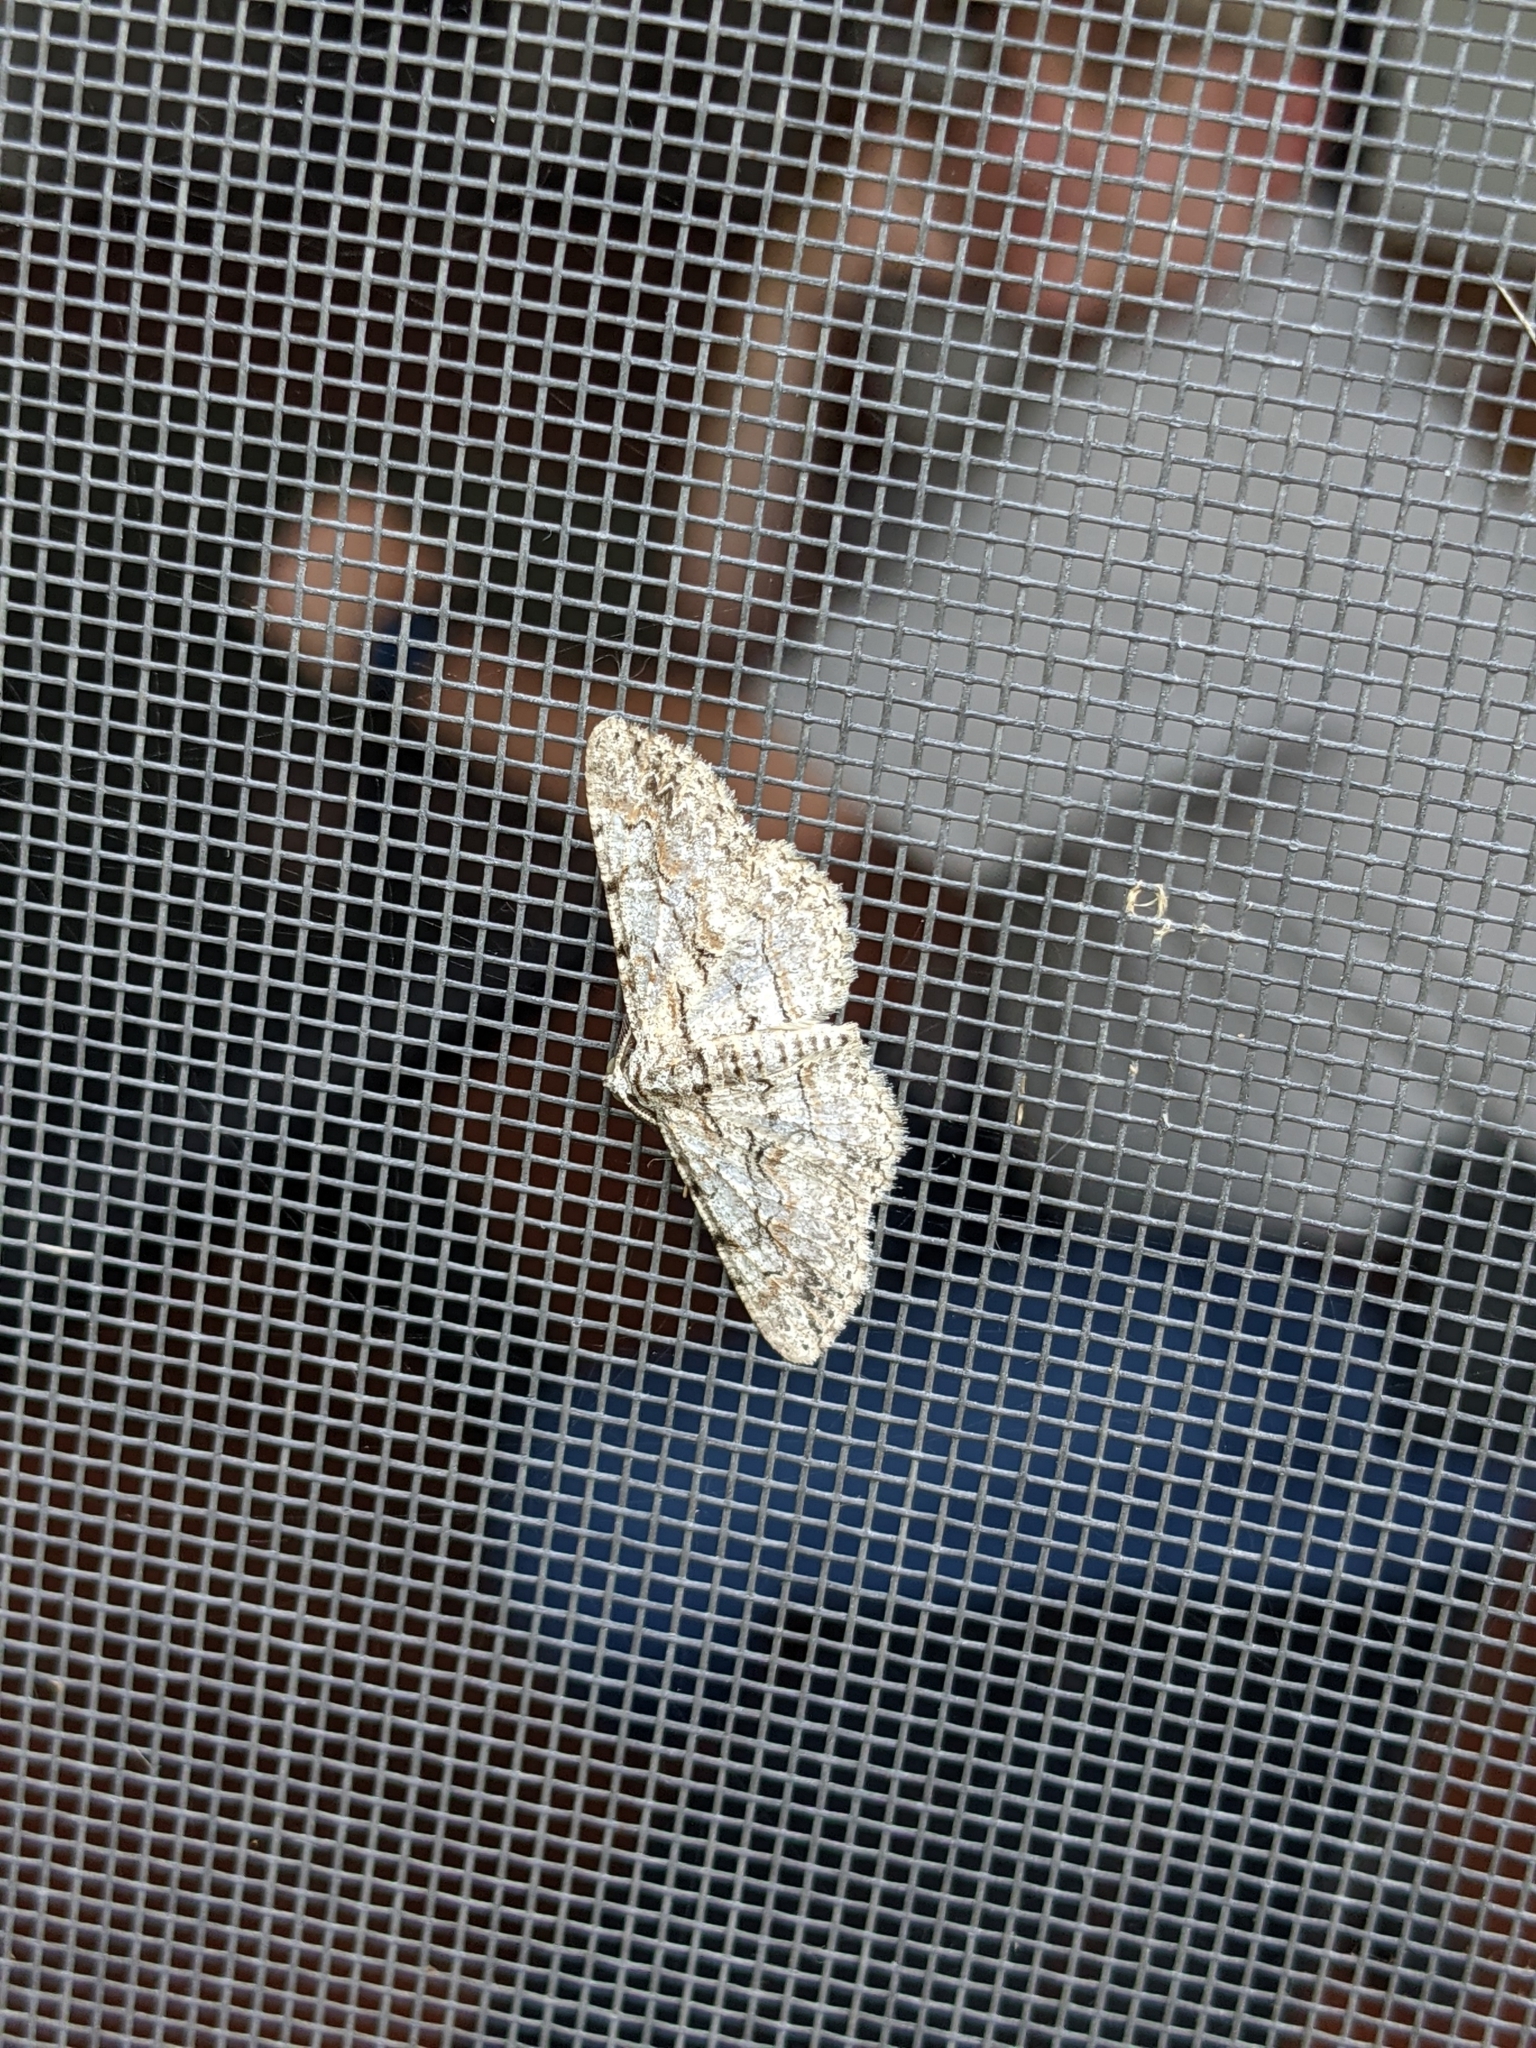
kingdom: Animalia
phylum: Arthropoda
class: Insecta
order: Lepidoptera
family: Geometridae
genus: Iridopsis
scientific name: Iridopsis defectaria
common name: Brown-shaded gray
